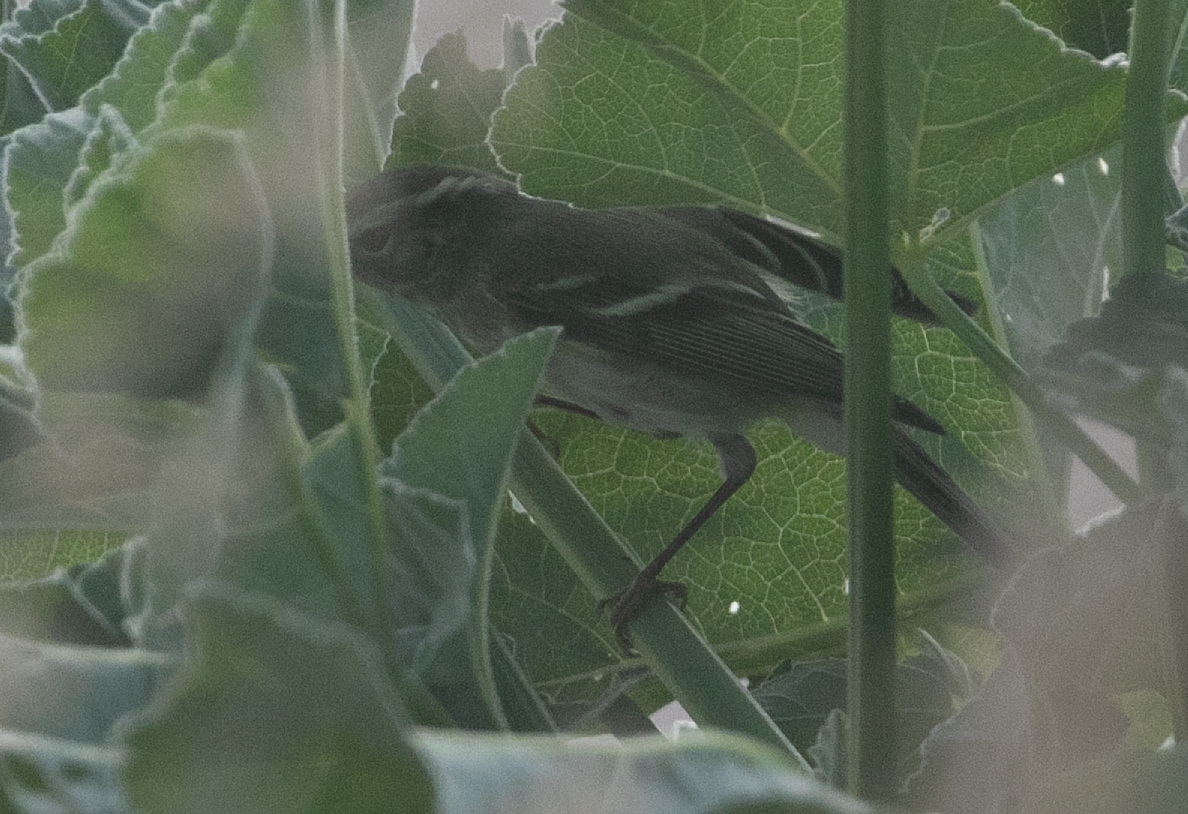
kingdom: Animalia
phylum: Chordata
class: Aves
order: Passeriformes
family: Phylloscopidae
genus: Phylloscopus
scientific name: Phylloscopus inornatus
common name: Yellow-browed warbler
